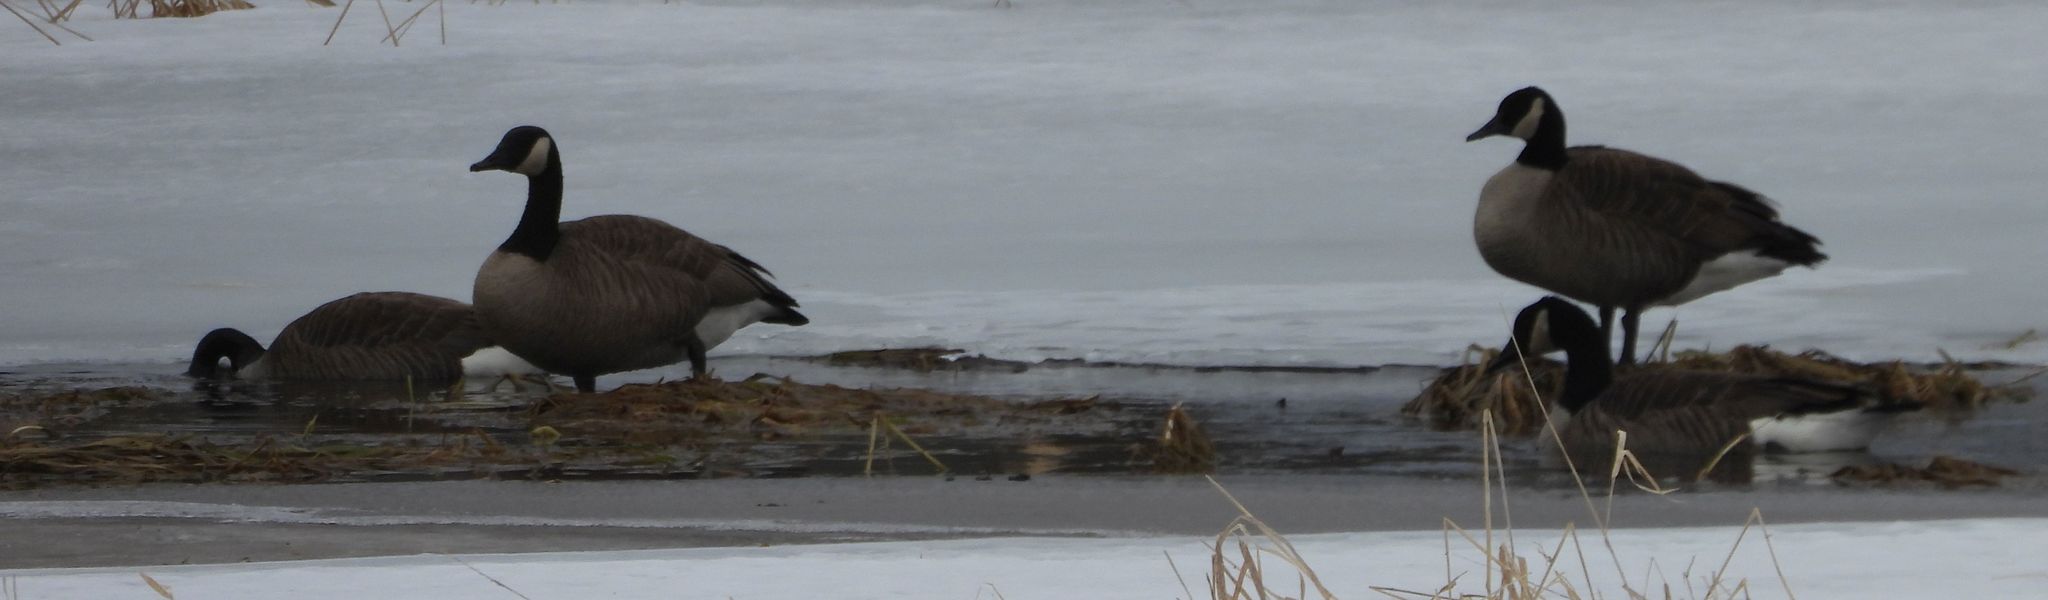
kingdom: Animalia
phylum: Chordata
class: Aves
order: Anseriformes
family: Anatidae
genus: Branta
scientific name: Branta canadensis
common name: Canada goose
